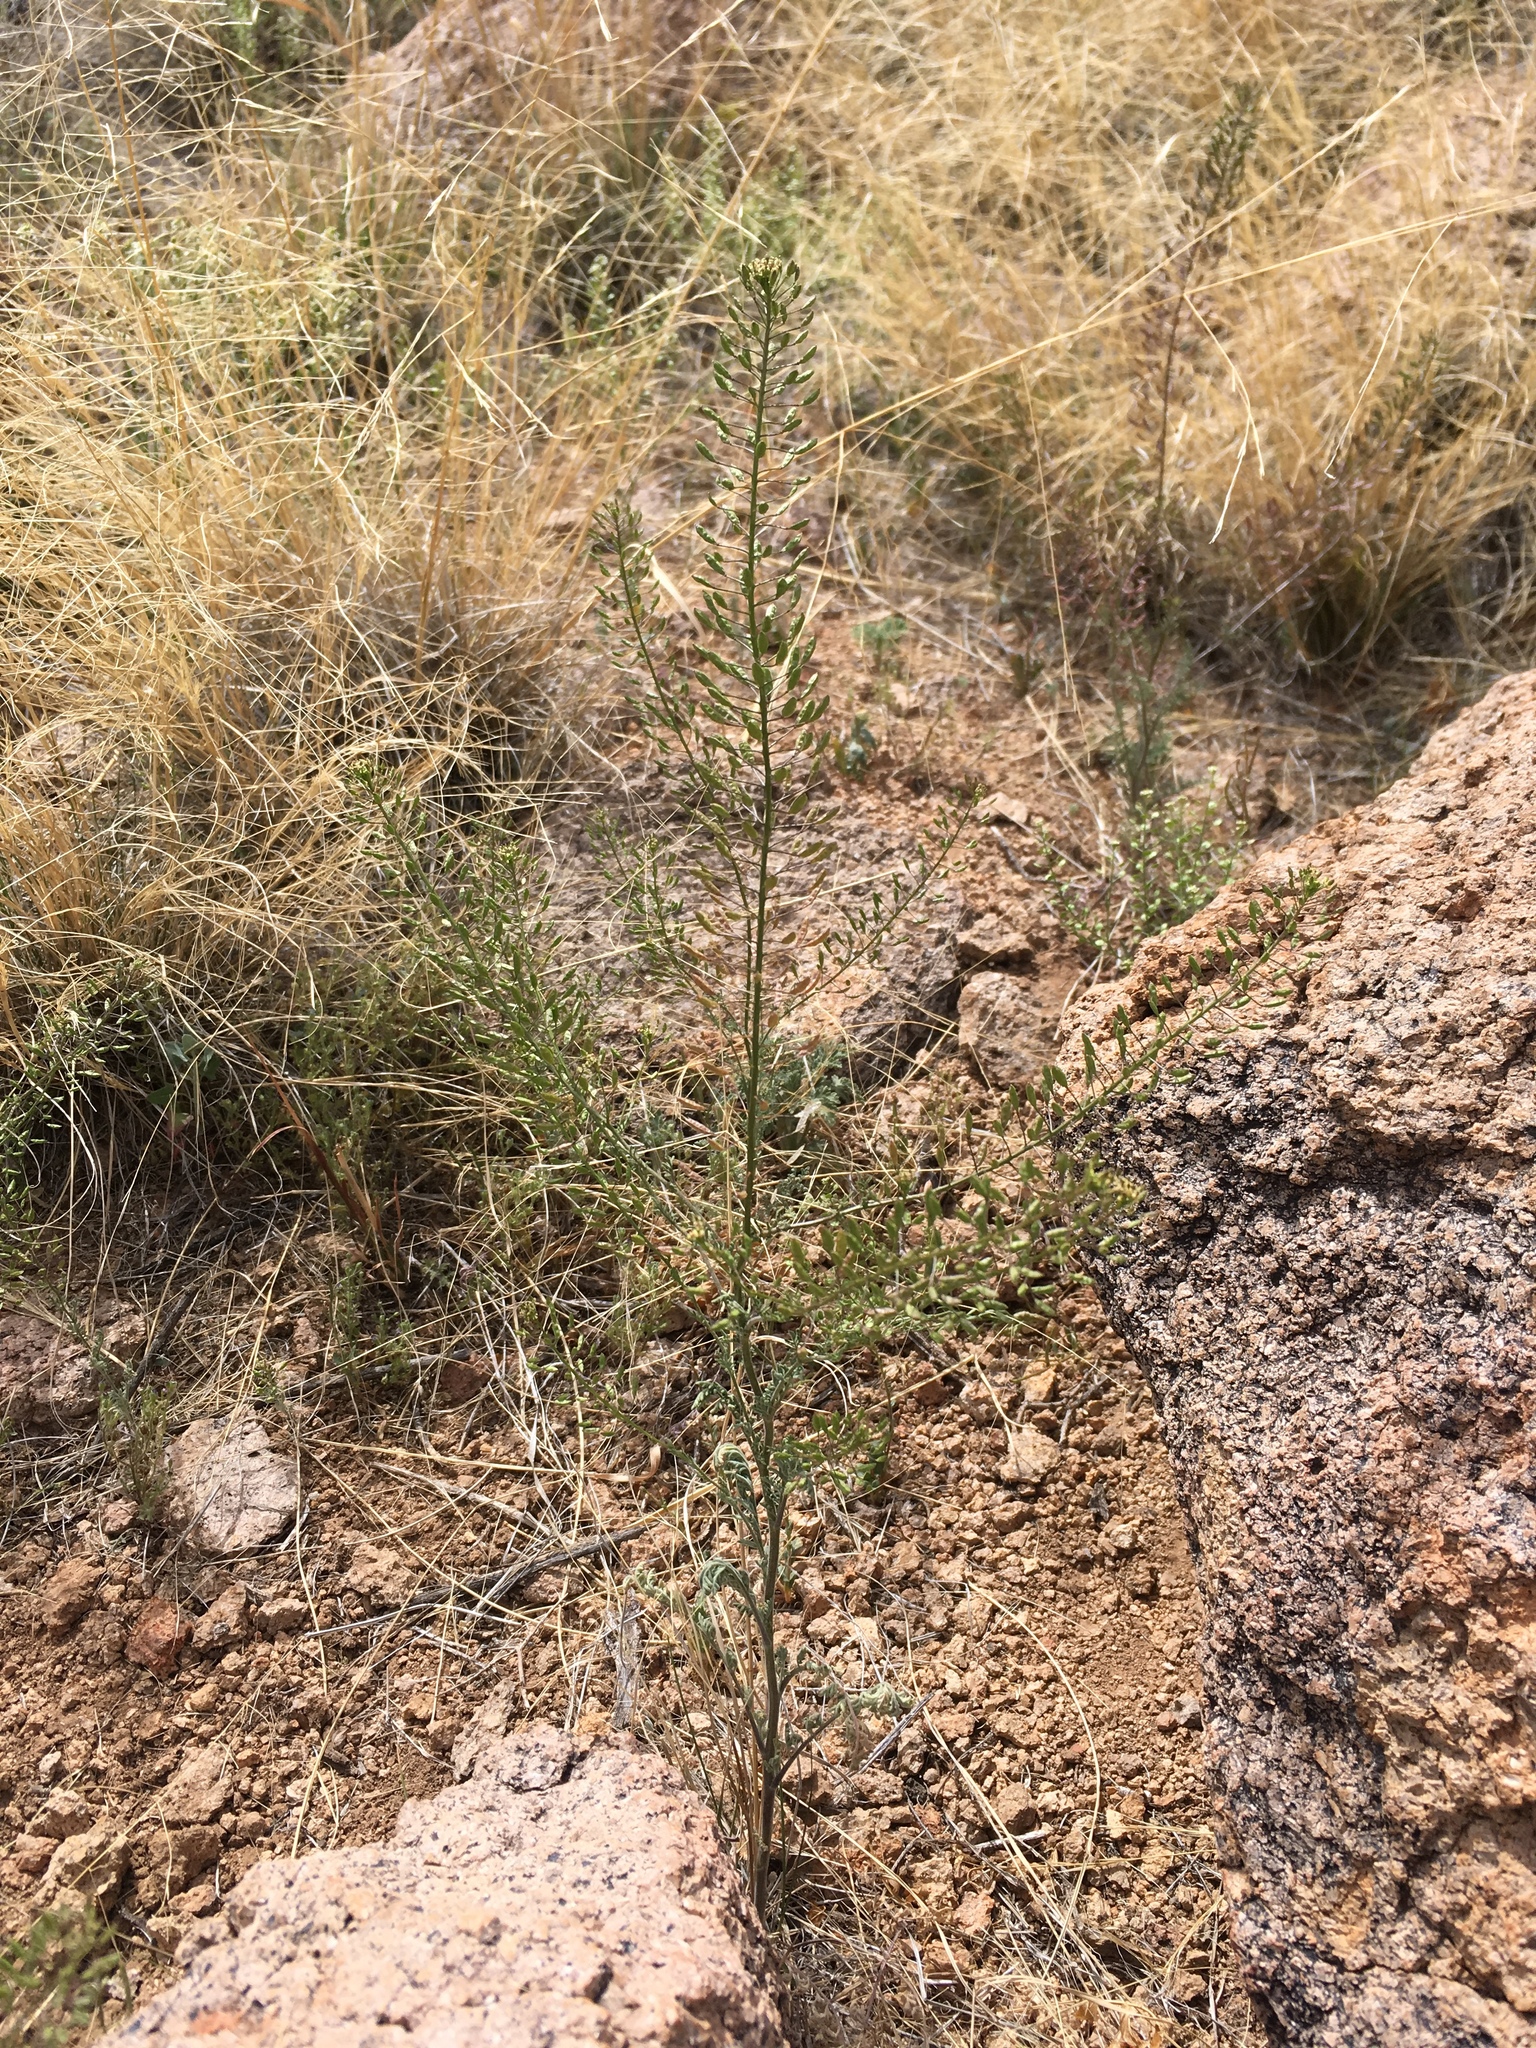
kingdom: Plantae
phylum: Tracheophyta
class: Magnoliopsida
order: Brassicales
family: Brassicaceae
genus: Descurainia
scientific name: Descurainia pinnata
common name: Western tansy mustard
